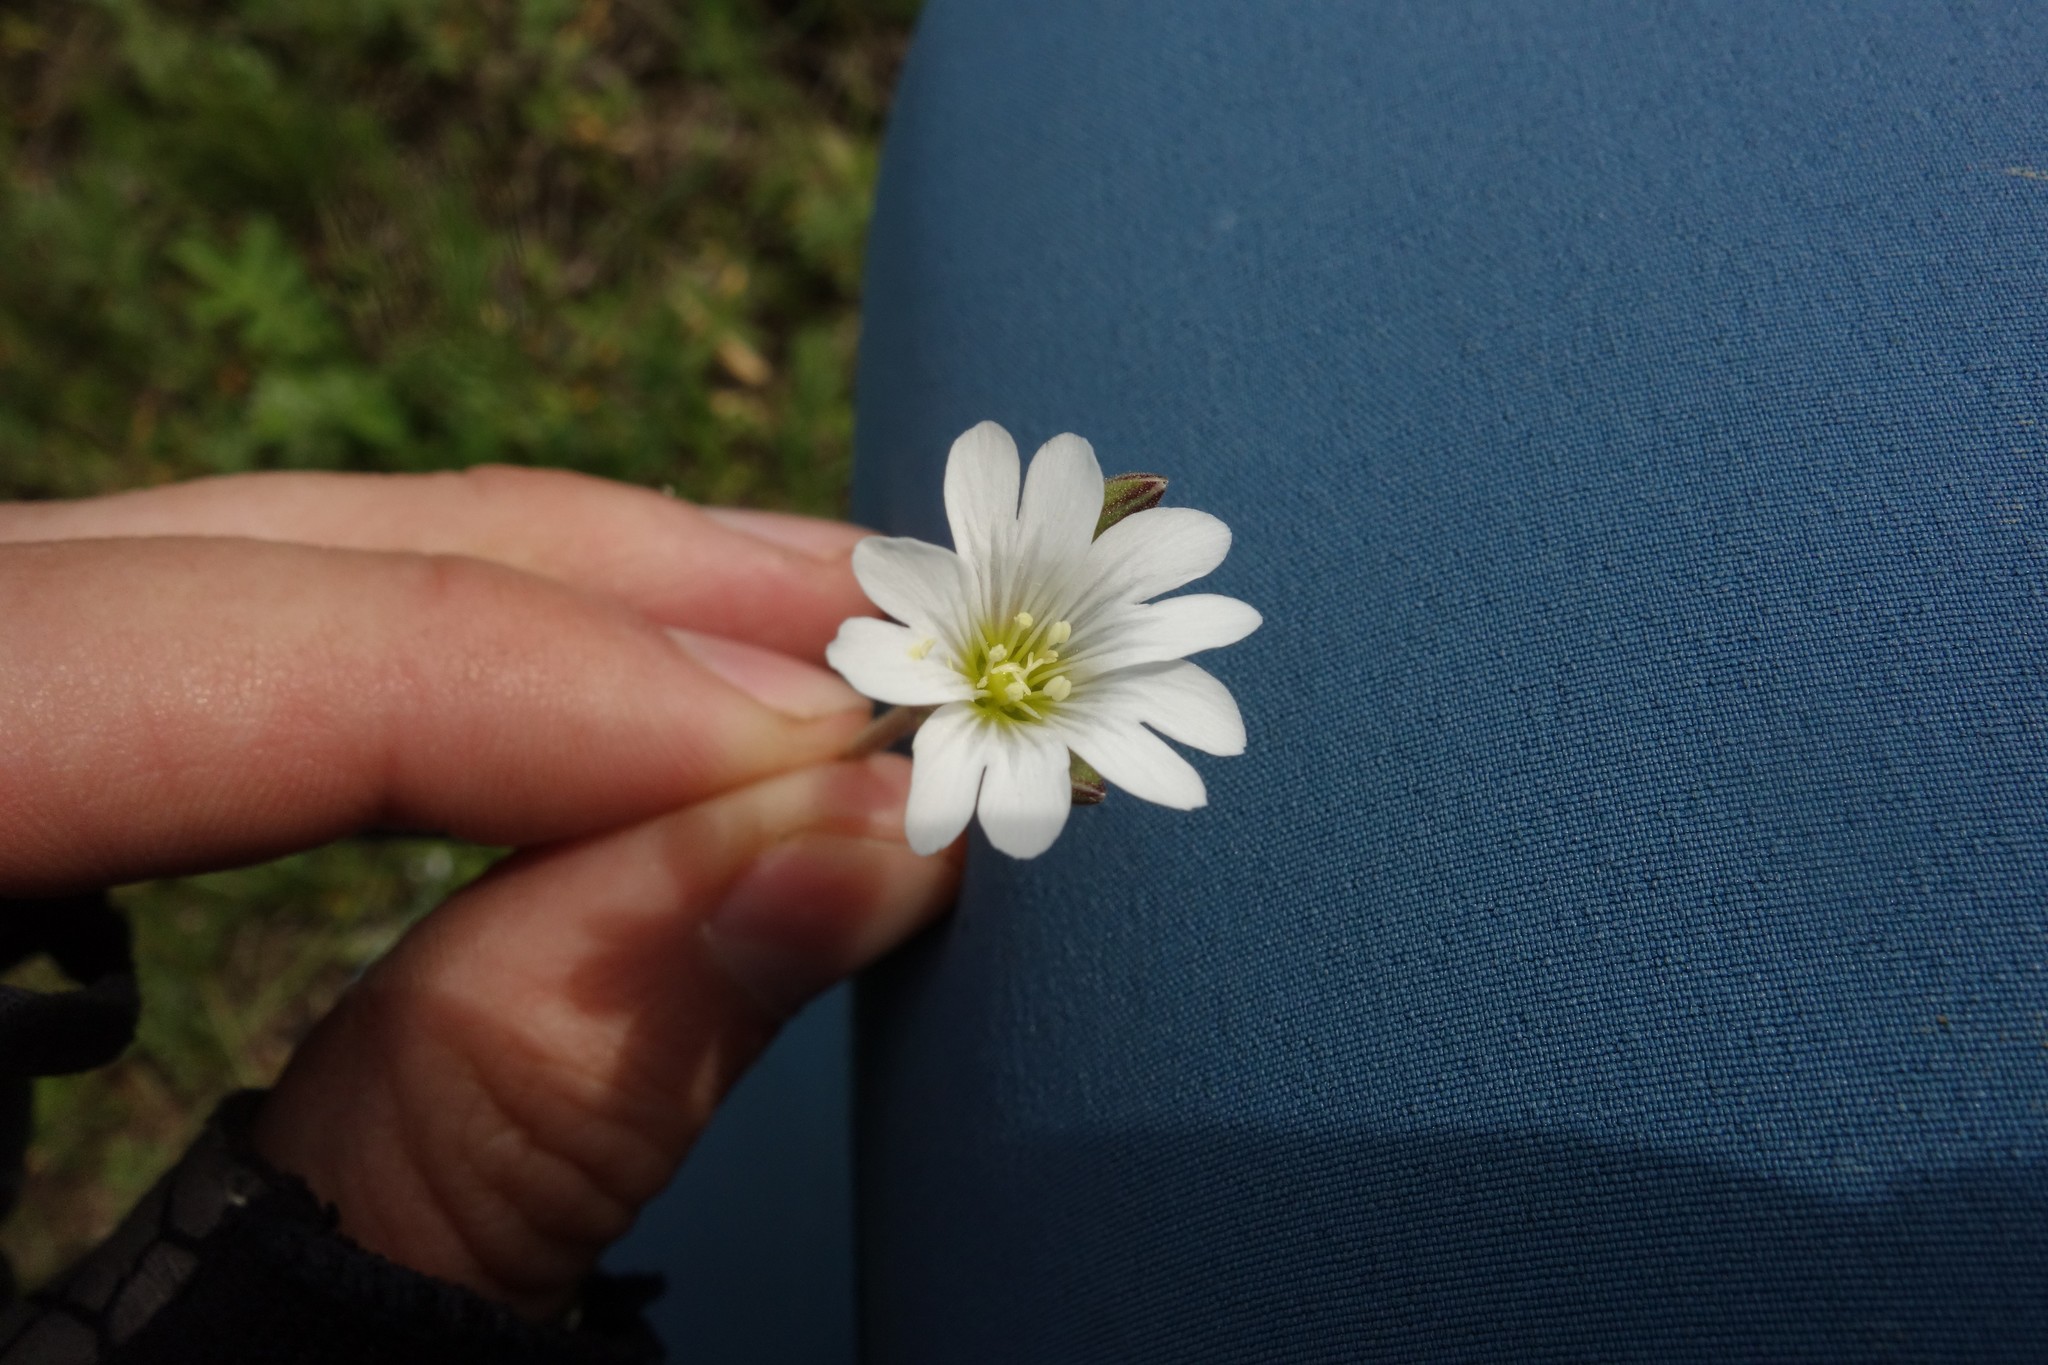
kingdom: Plantae
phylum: Tracheophyta
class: Magnoliopsida
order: Caryophyllales
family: Caryophyllaceae
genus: Cerastium
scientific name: Cerastium arvense
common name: Field mouse-ear
